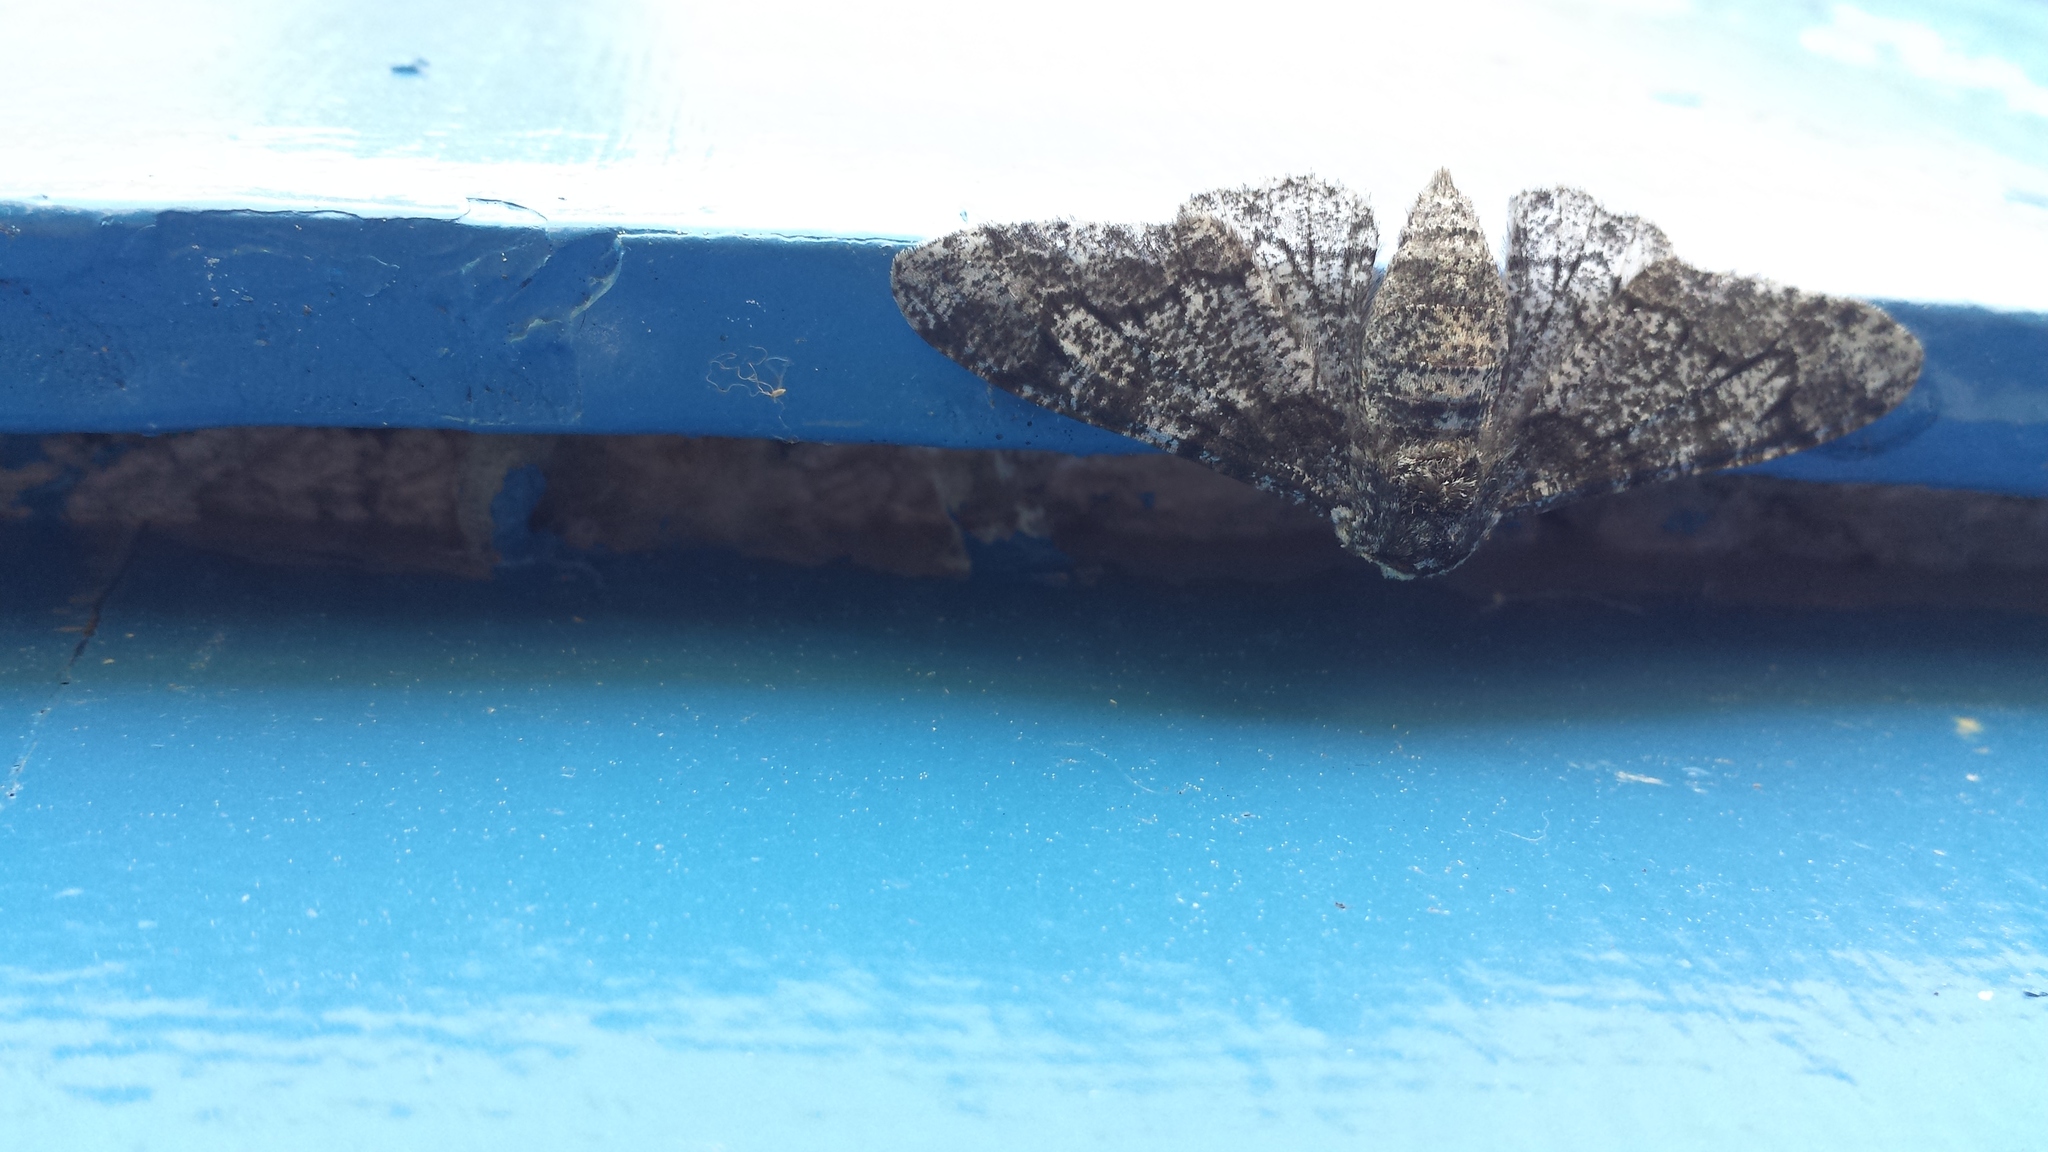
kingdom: Animalia
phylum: Arthropoda
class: Insecta
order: Lepidoptera
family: Geometridae
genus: Biston
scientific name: Biston betularia
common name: Peppered moth
